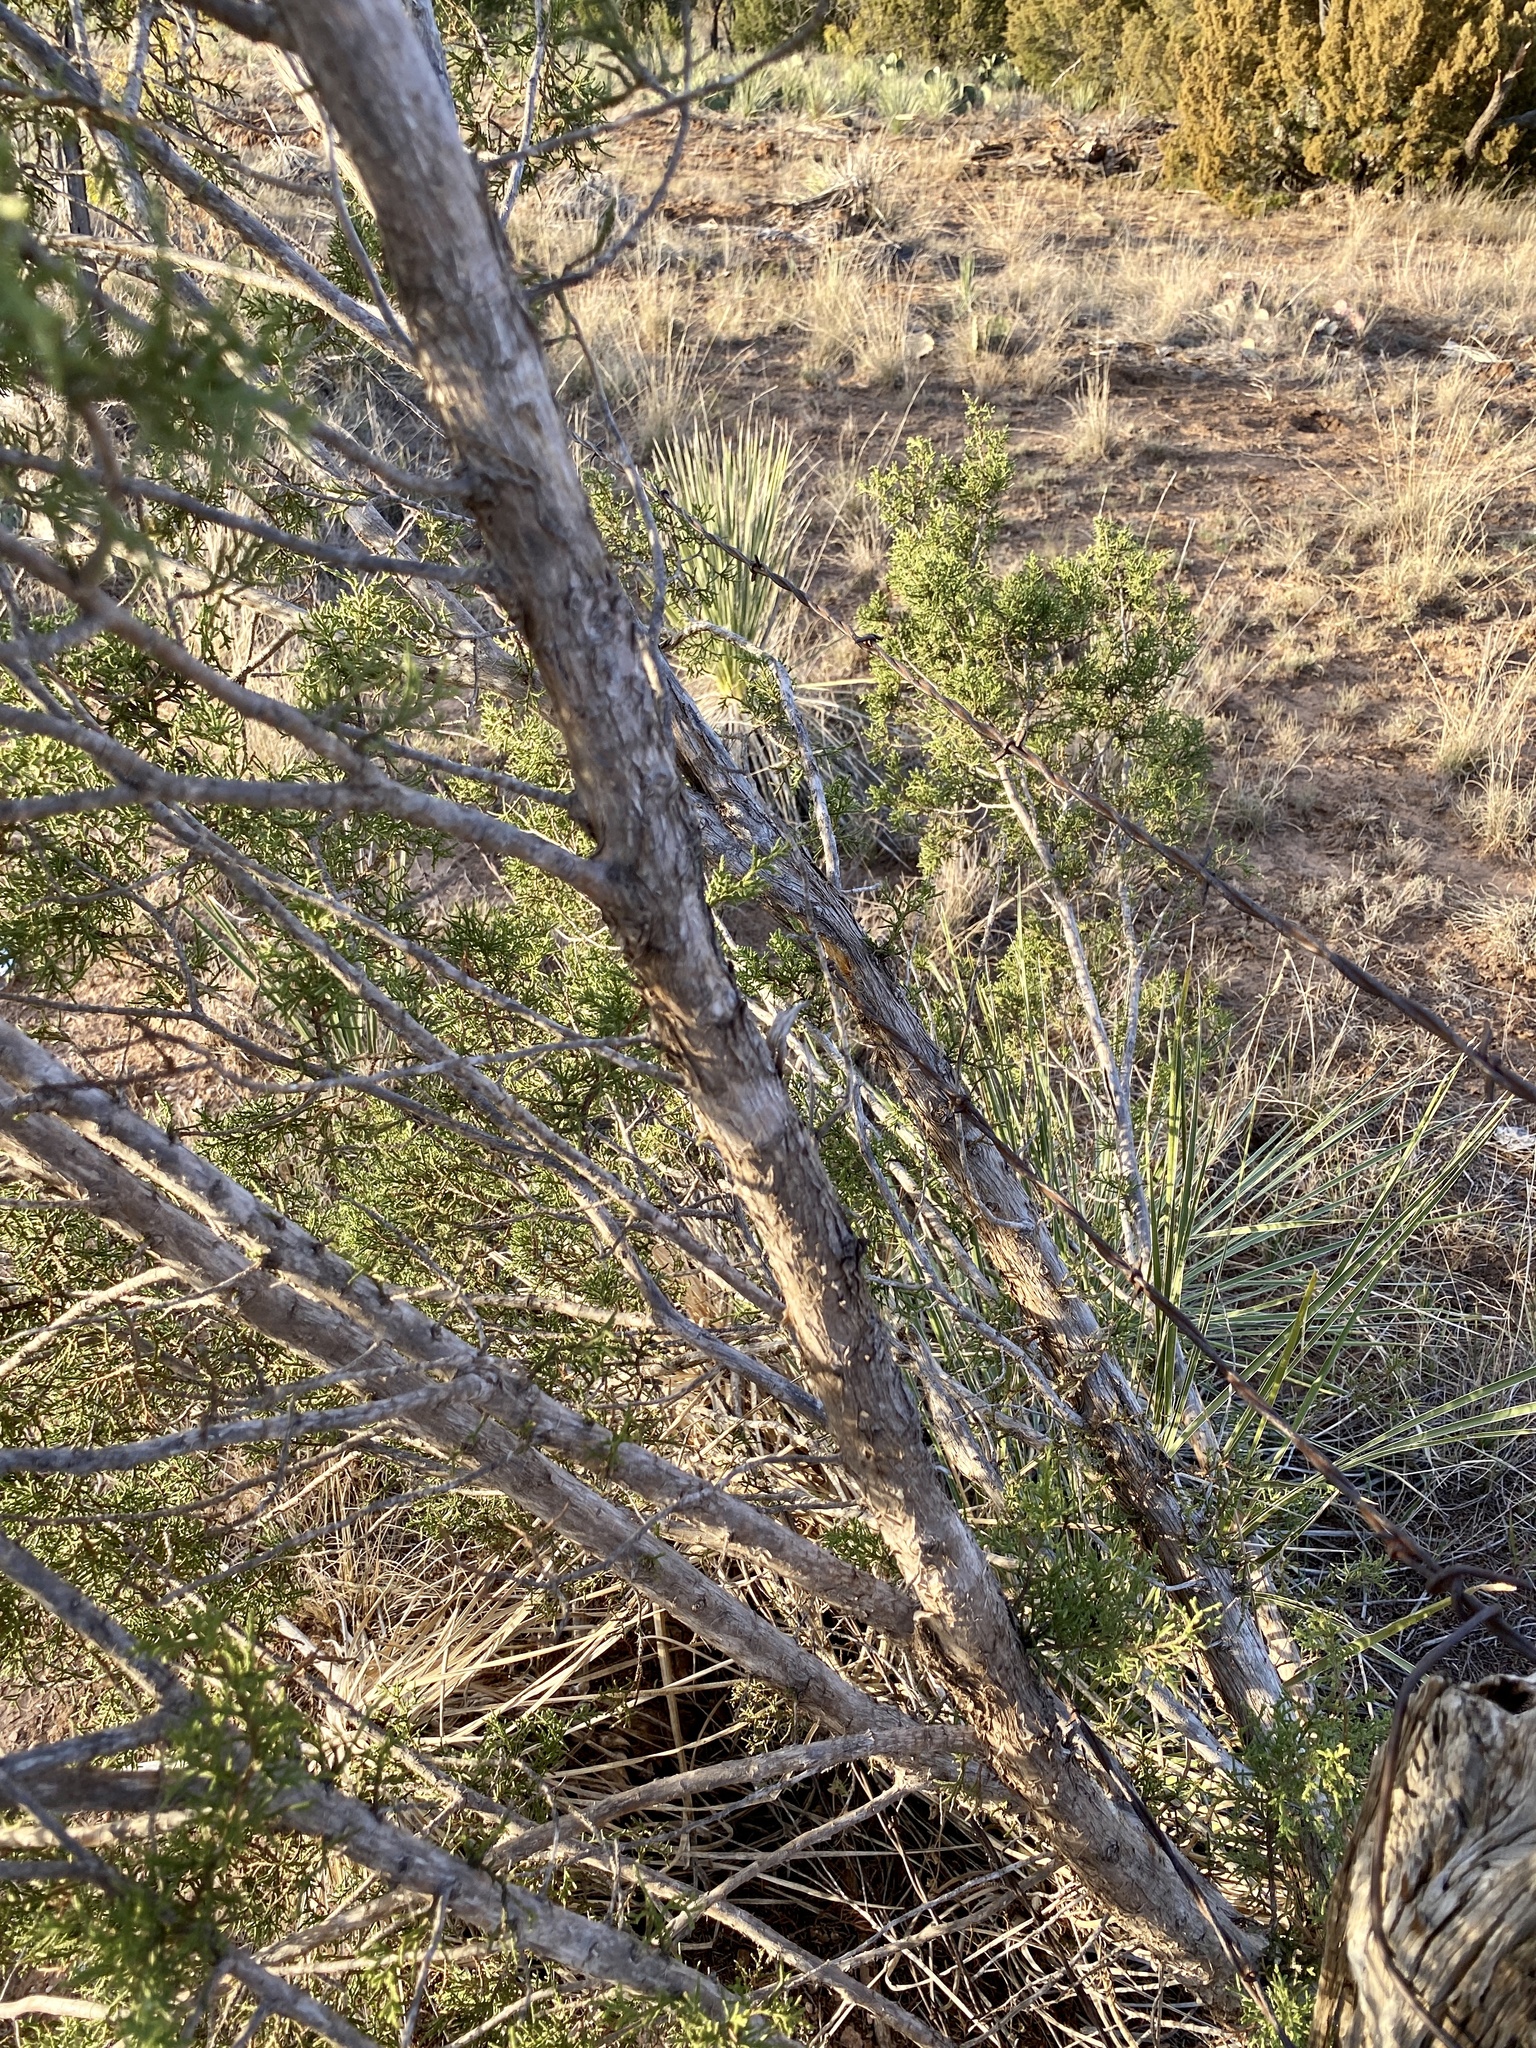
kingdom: Plantae
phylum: Tracheophyta
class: Pinopsida
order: Pinales
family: Cupressaceae
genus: Juniperus
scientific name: Juniperus pinchotii
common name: Pinchot juniper
